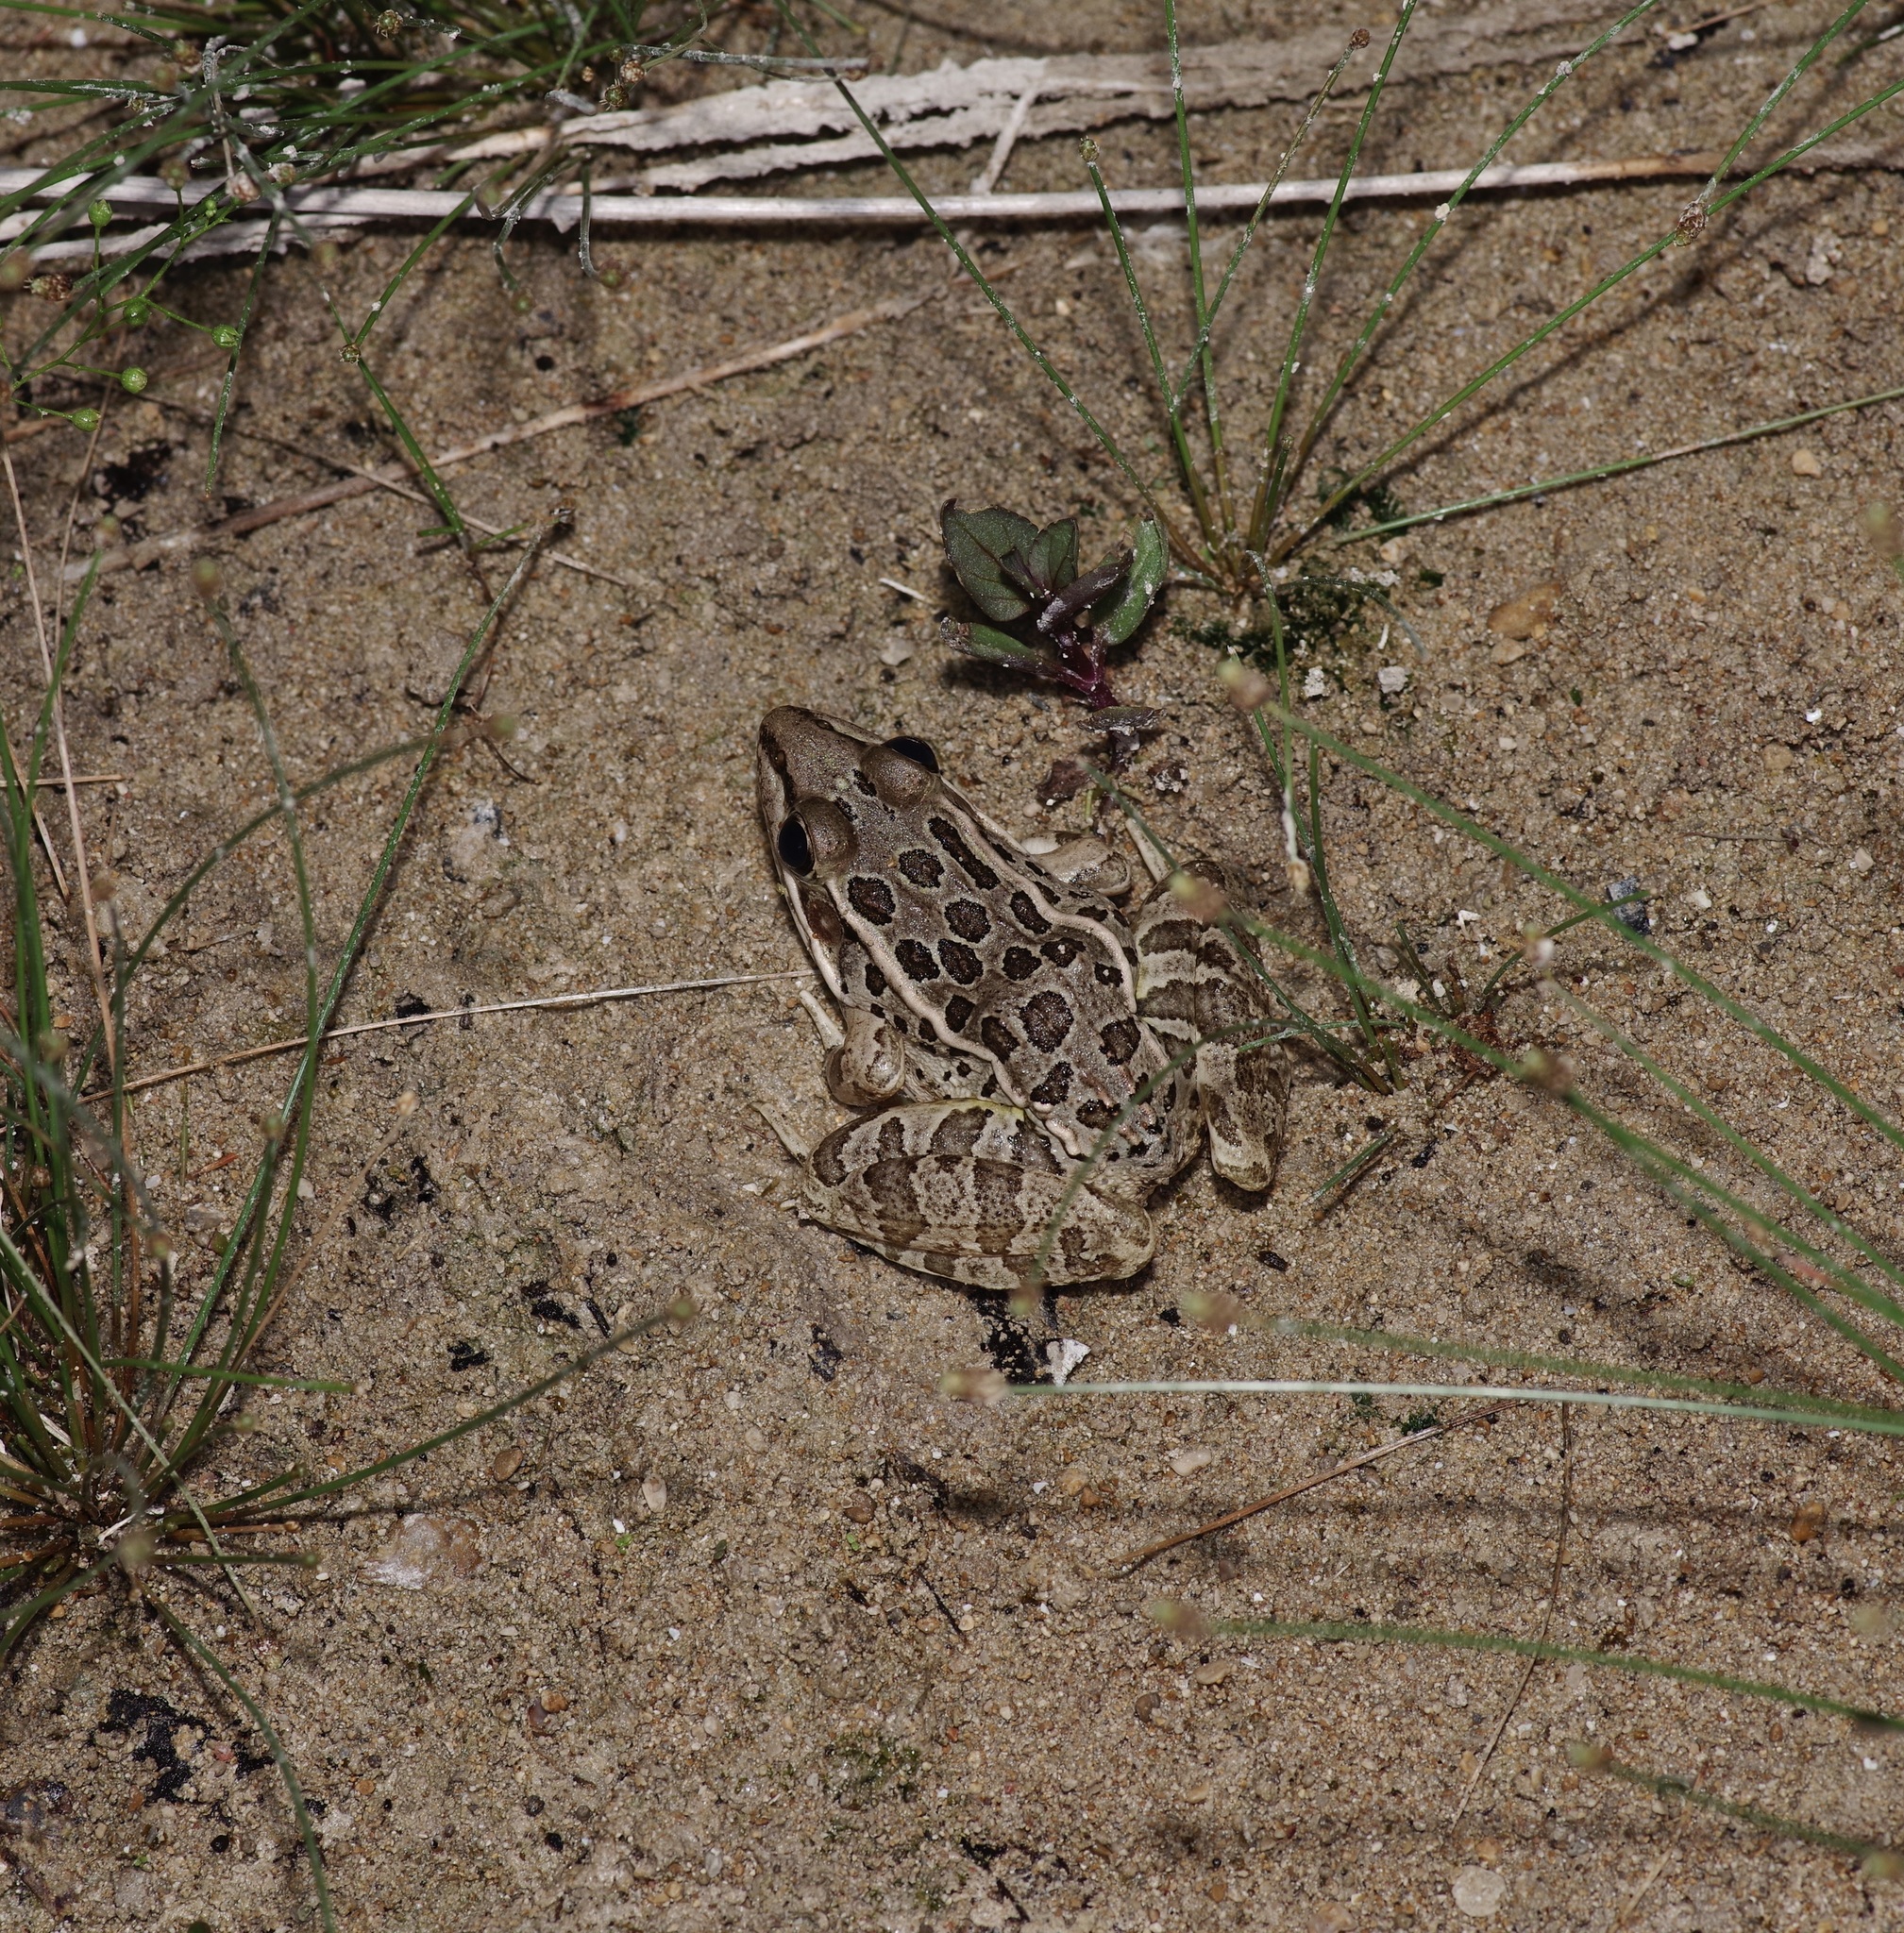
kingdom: Animalia
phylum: Chordata
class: Amphibia
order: Anura
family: Ranidae
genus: Lithobates
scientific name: Lithobates berlandieri
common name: Rio grande leopard frog
